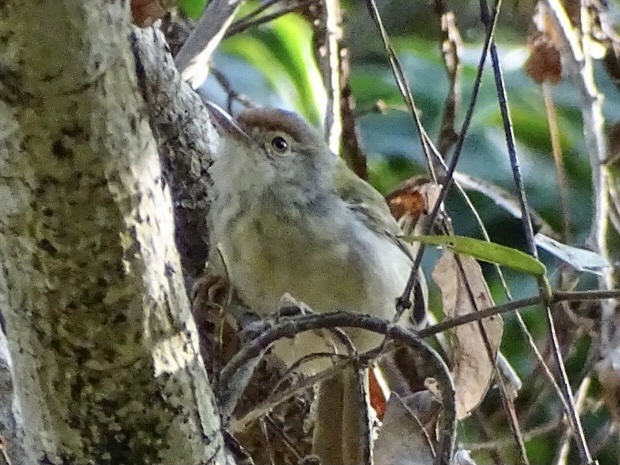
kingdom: Animalia
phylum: Chordata
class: Aves
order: Passeriformes
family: Cisticolidae
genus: Orthotomus
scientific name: Orthotomus sutorius
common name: Common tailorbird
